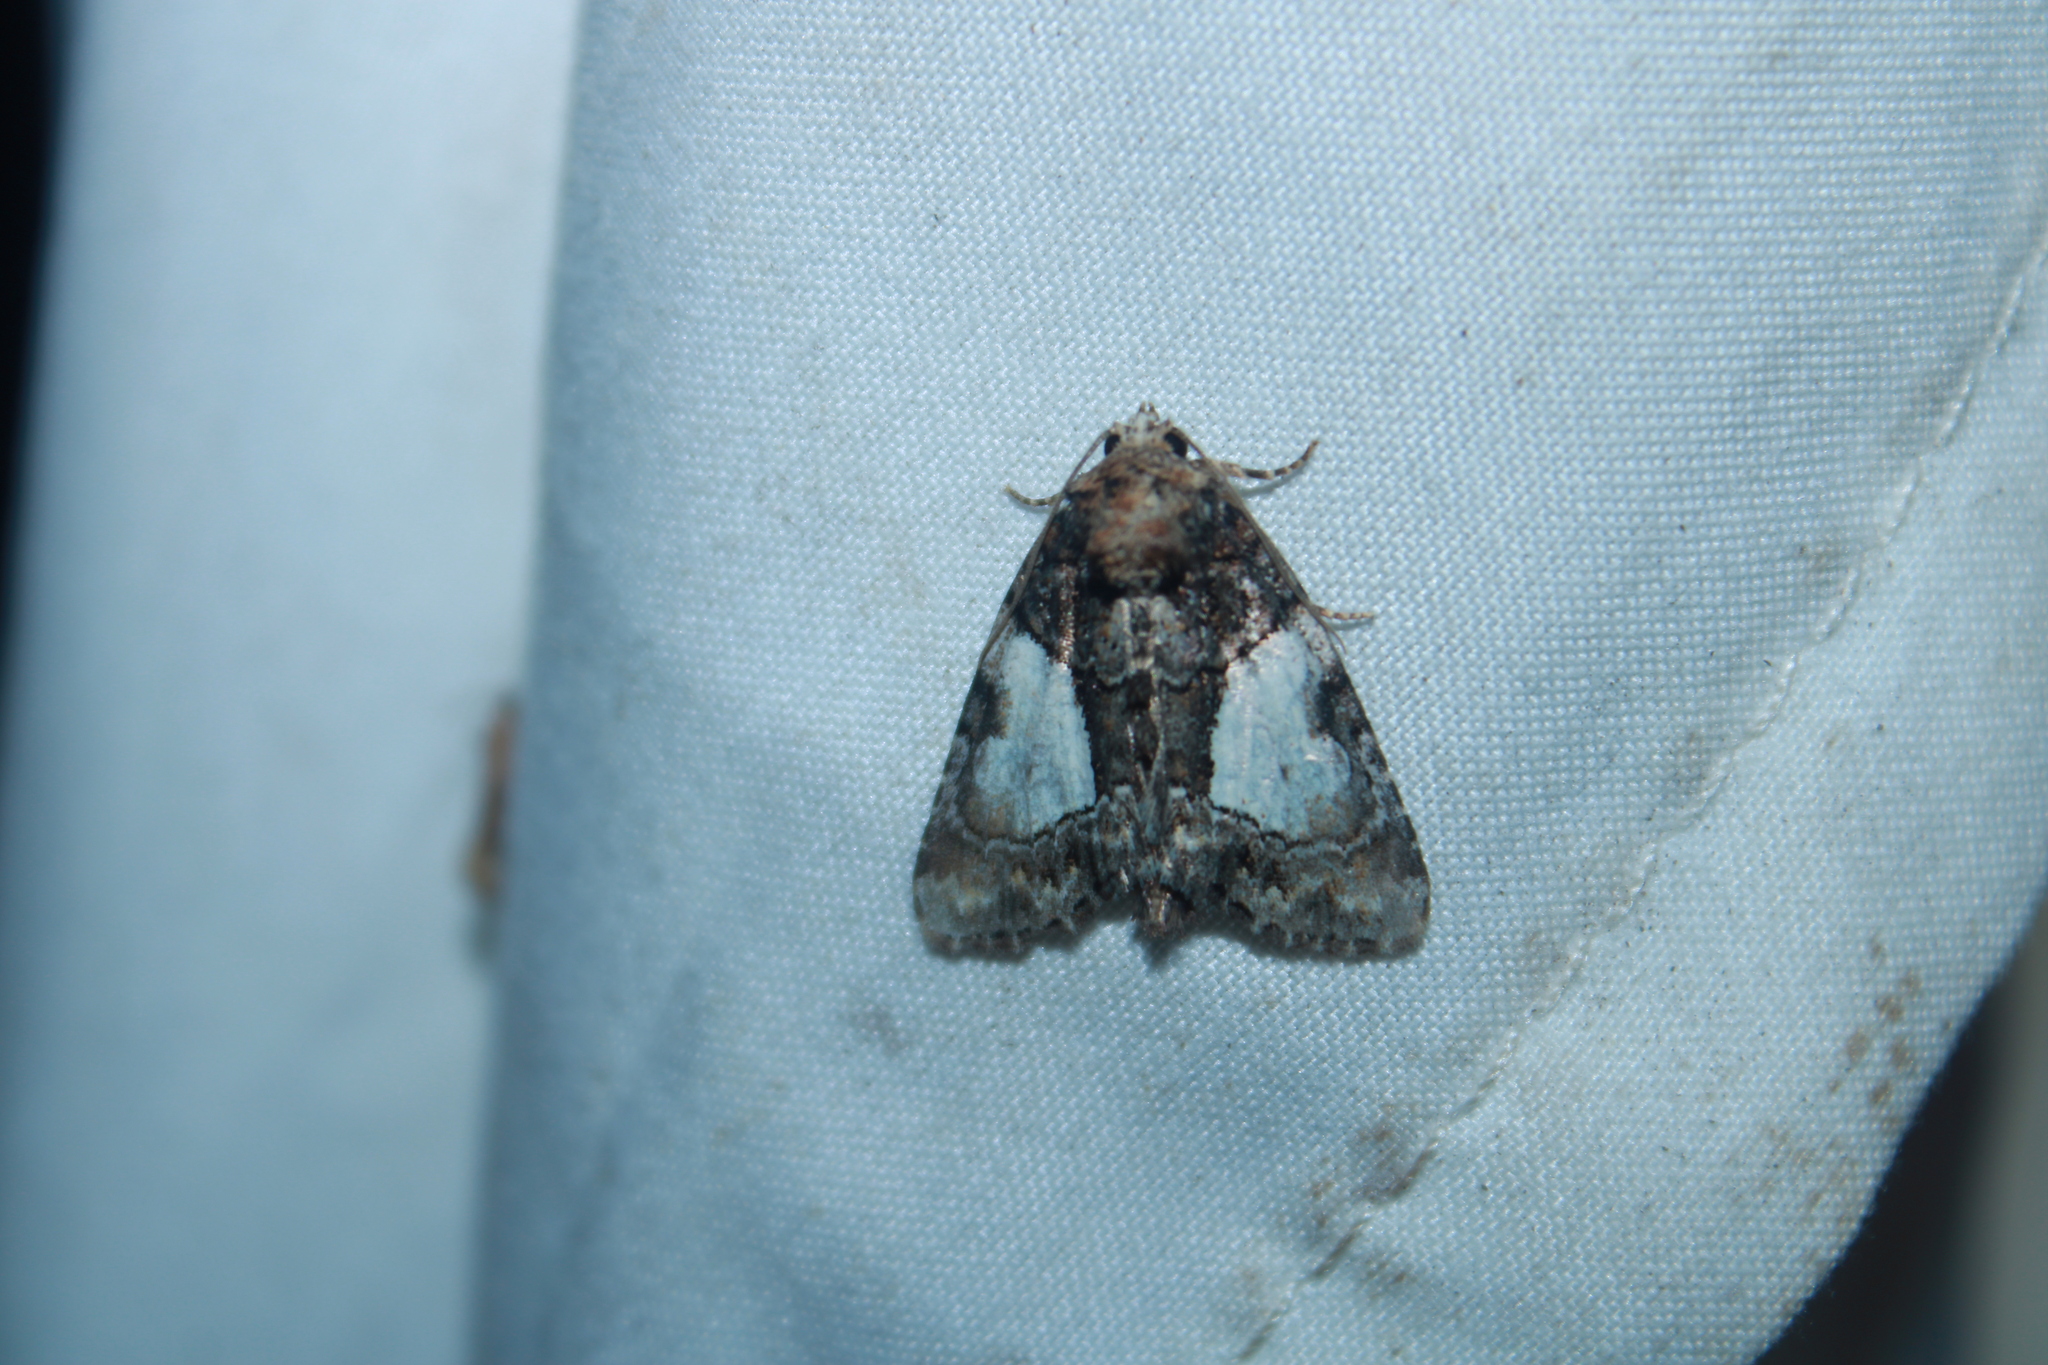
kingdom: Animalia
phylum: Arthropoda
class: Insecta
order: Lepidoptera
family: Noctuidae
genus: Chytonix
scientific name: Chytonix palliatricula
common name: Cloaked marvel
